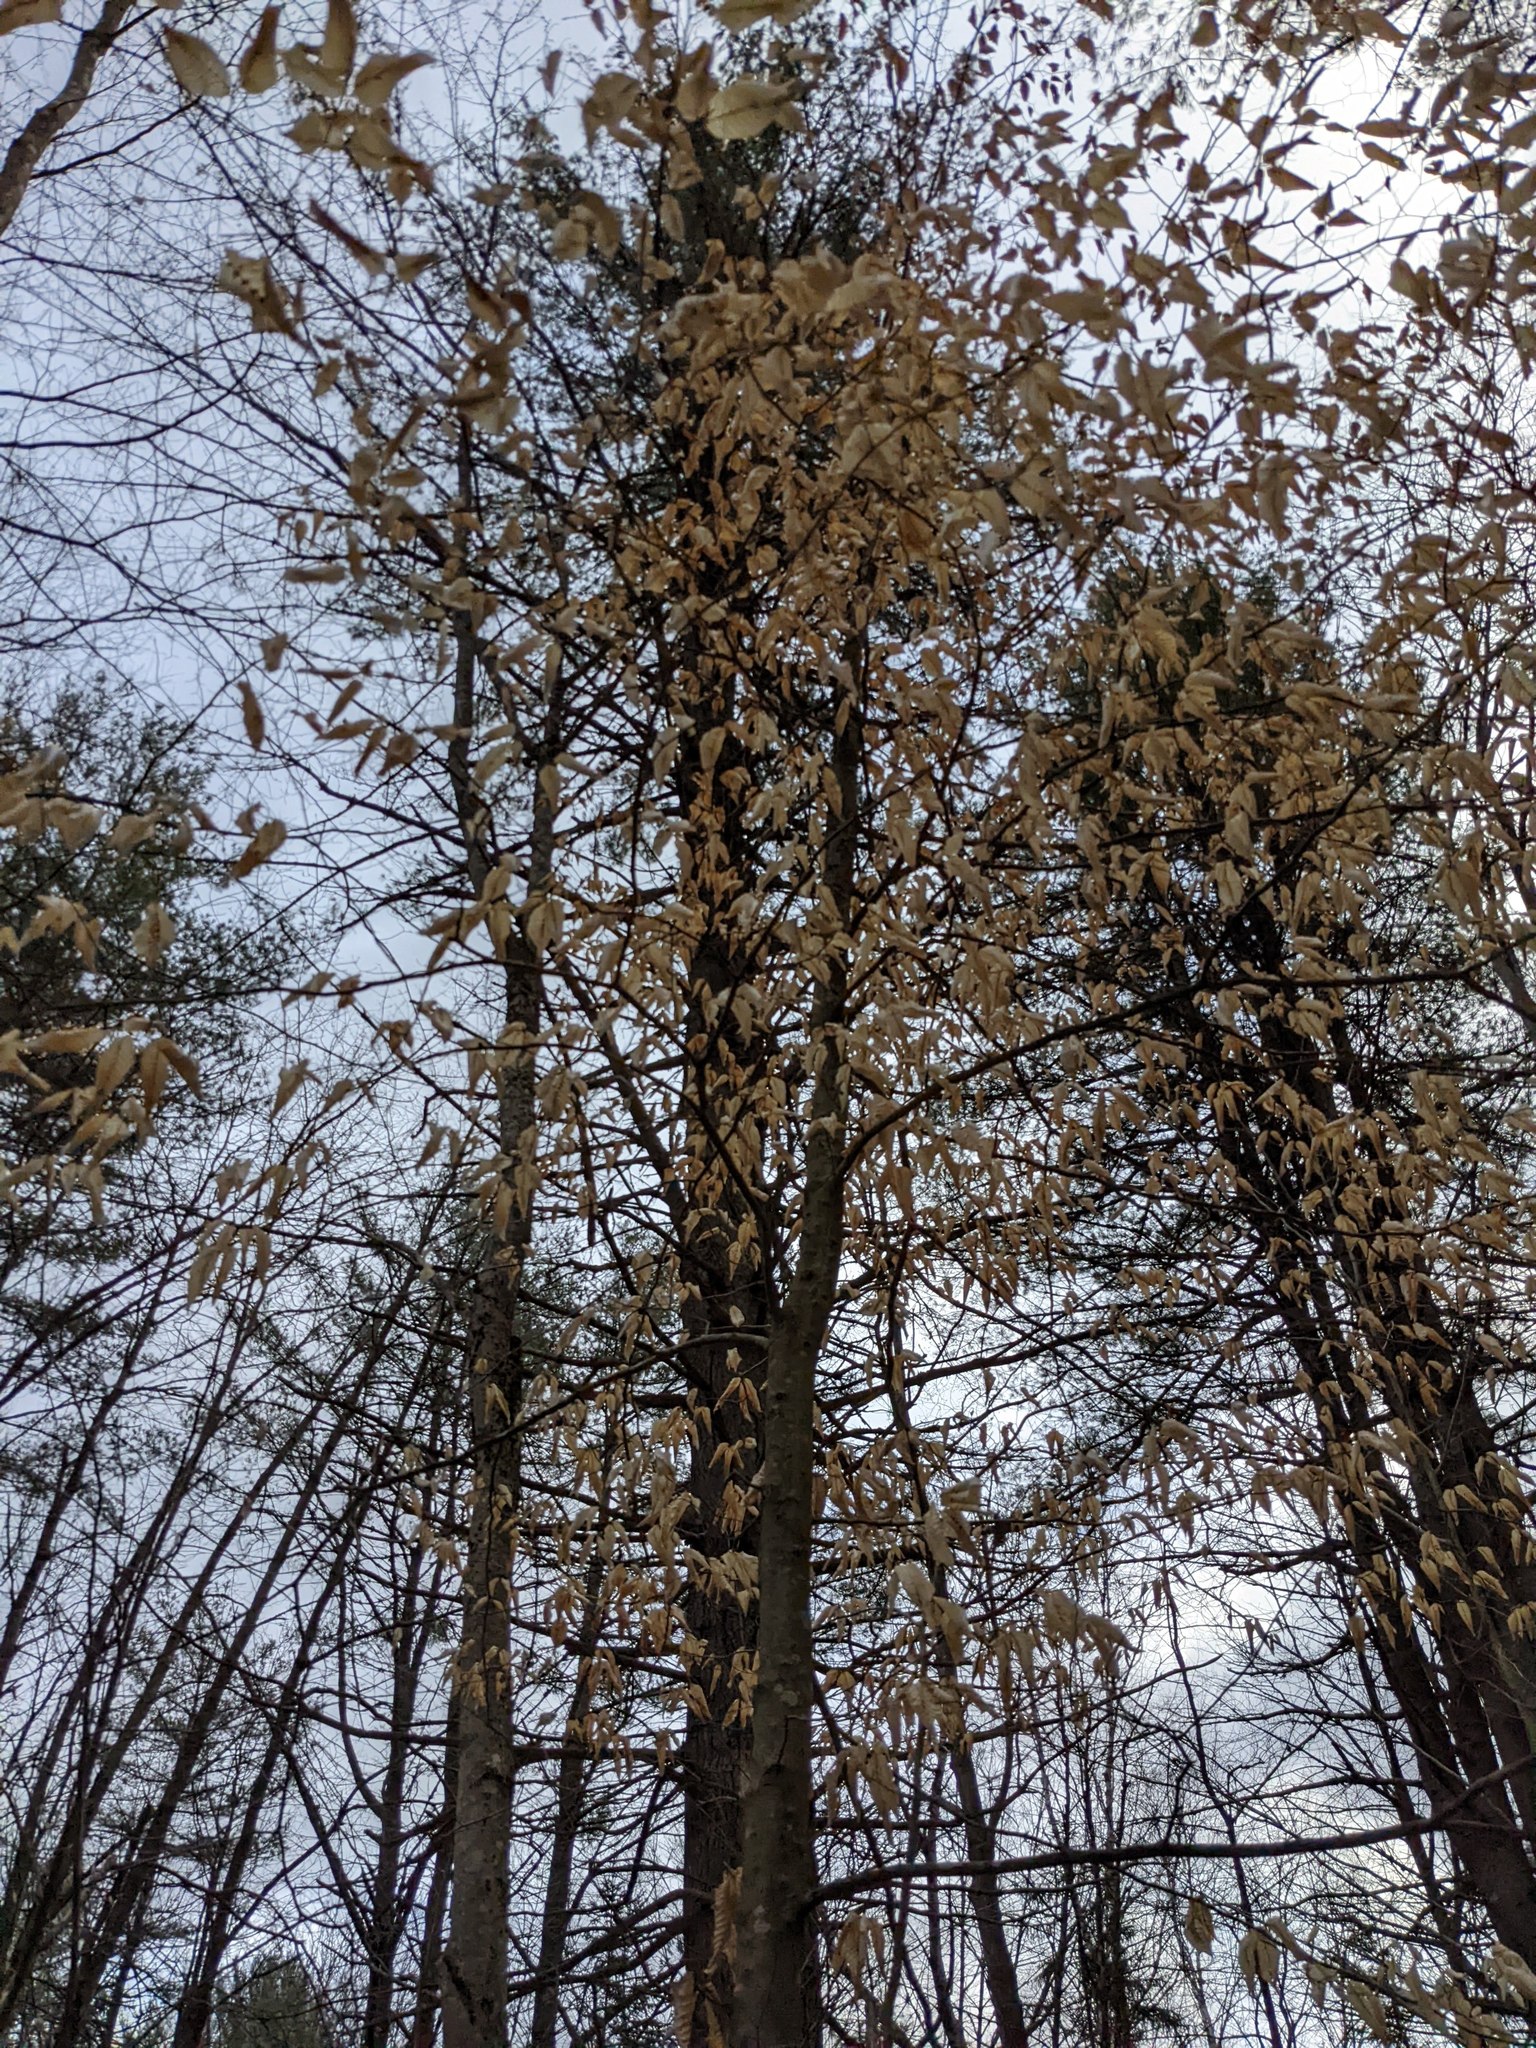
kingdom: Plantae
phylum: Tracheophyta
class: Magnoliopsida
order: Fagales
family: Fagaceae
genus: Fagus
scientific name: Fagus grandifolia
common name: American beech
